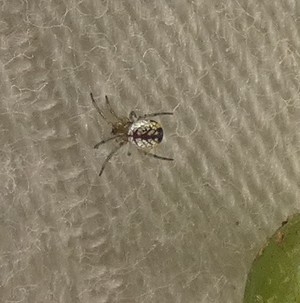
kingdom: Animalia
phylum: Arthropoda
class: Arachnida
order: Araneae
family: Tetragnathidae
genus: Leucauge
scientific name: Leucauge venusta
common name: Longjawed orb weavers
